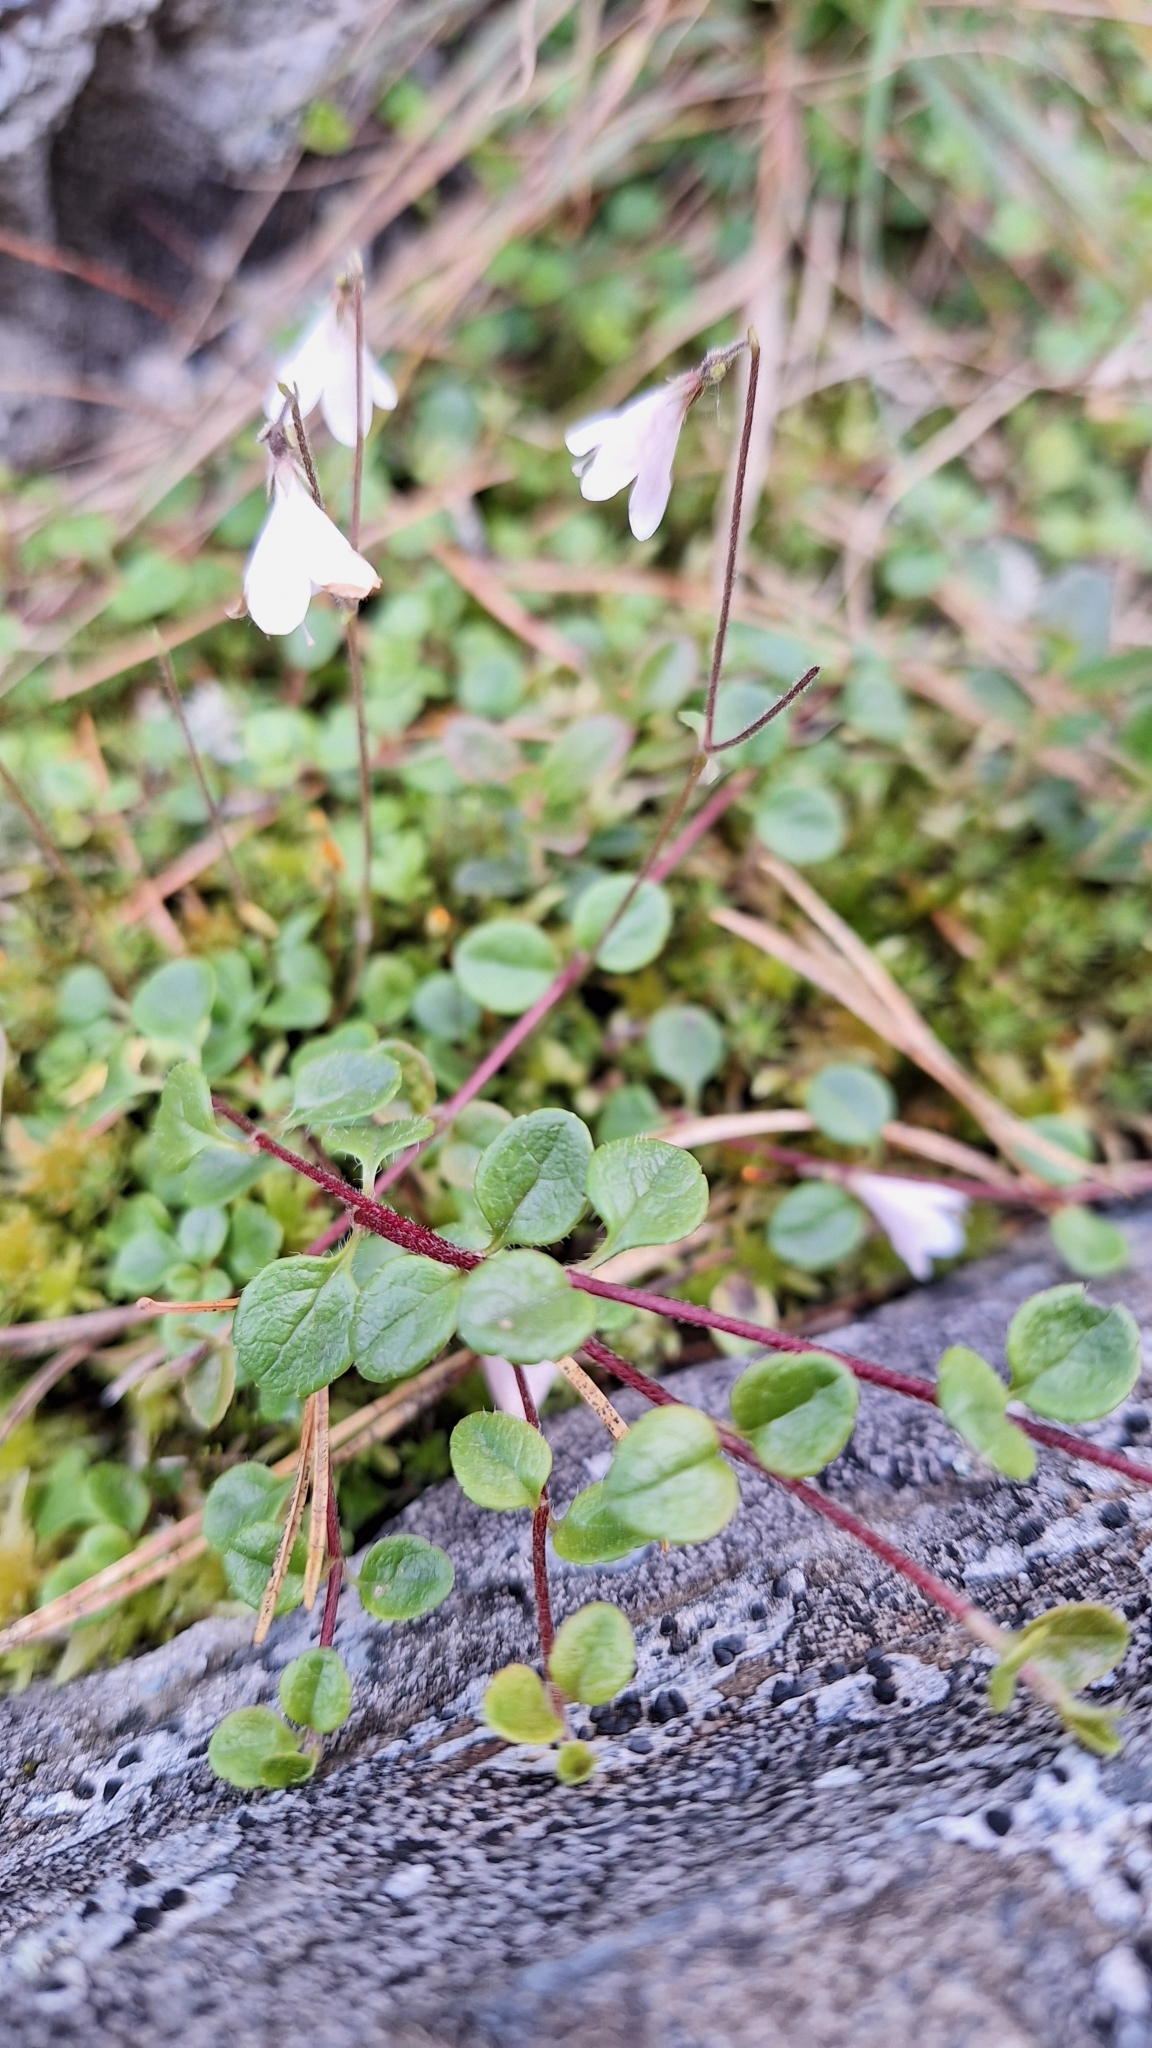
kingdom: Plantae
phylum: Tracheophyta
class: Magnoliopsida
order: Dipsacales
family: Caprifoliaceae
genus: Linnaea
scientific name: Linnaea borealis
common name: Twinflower
